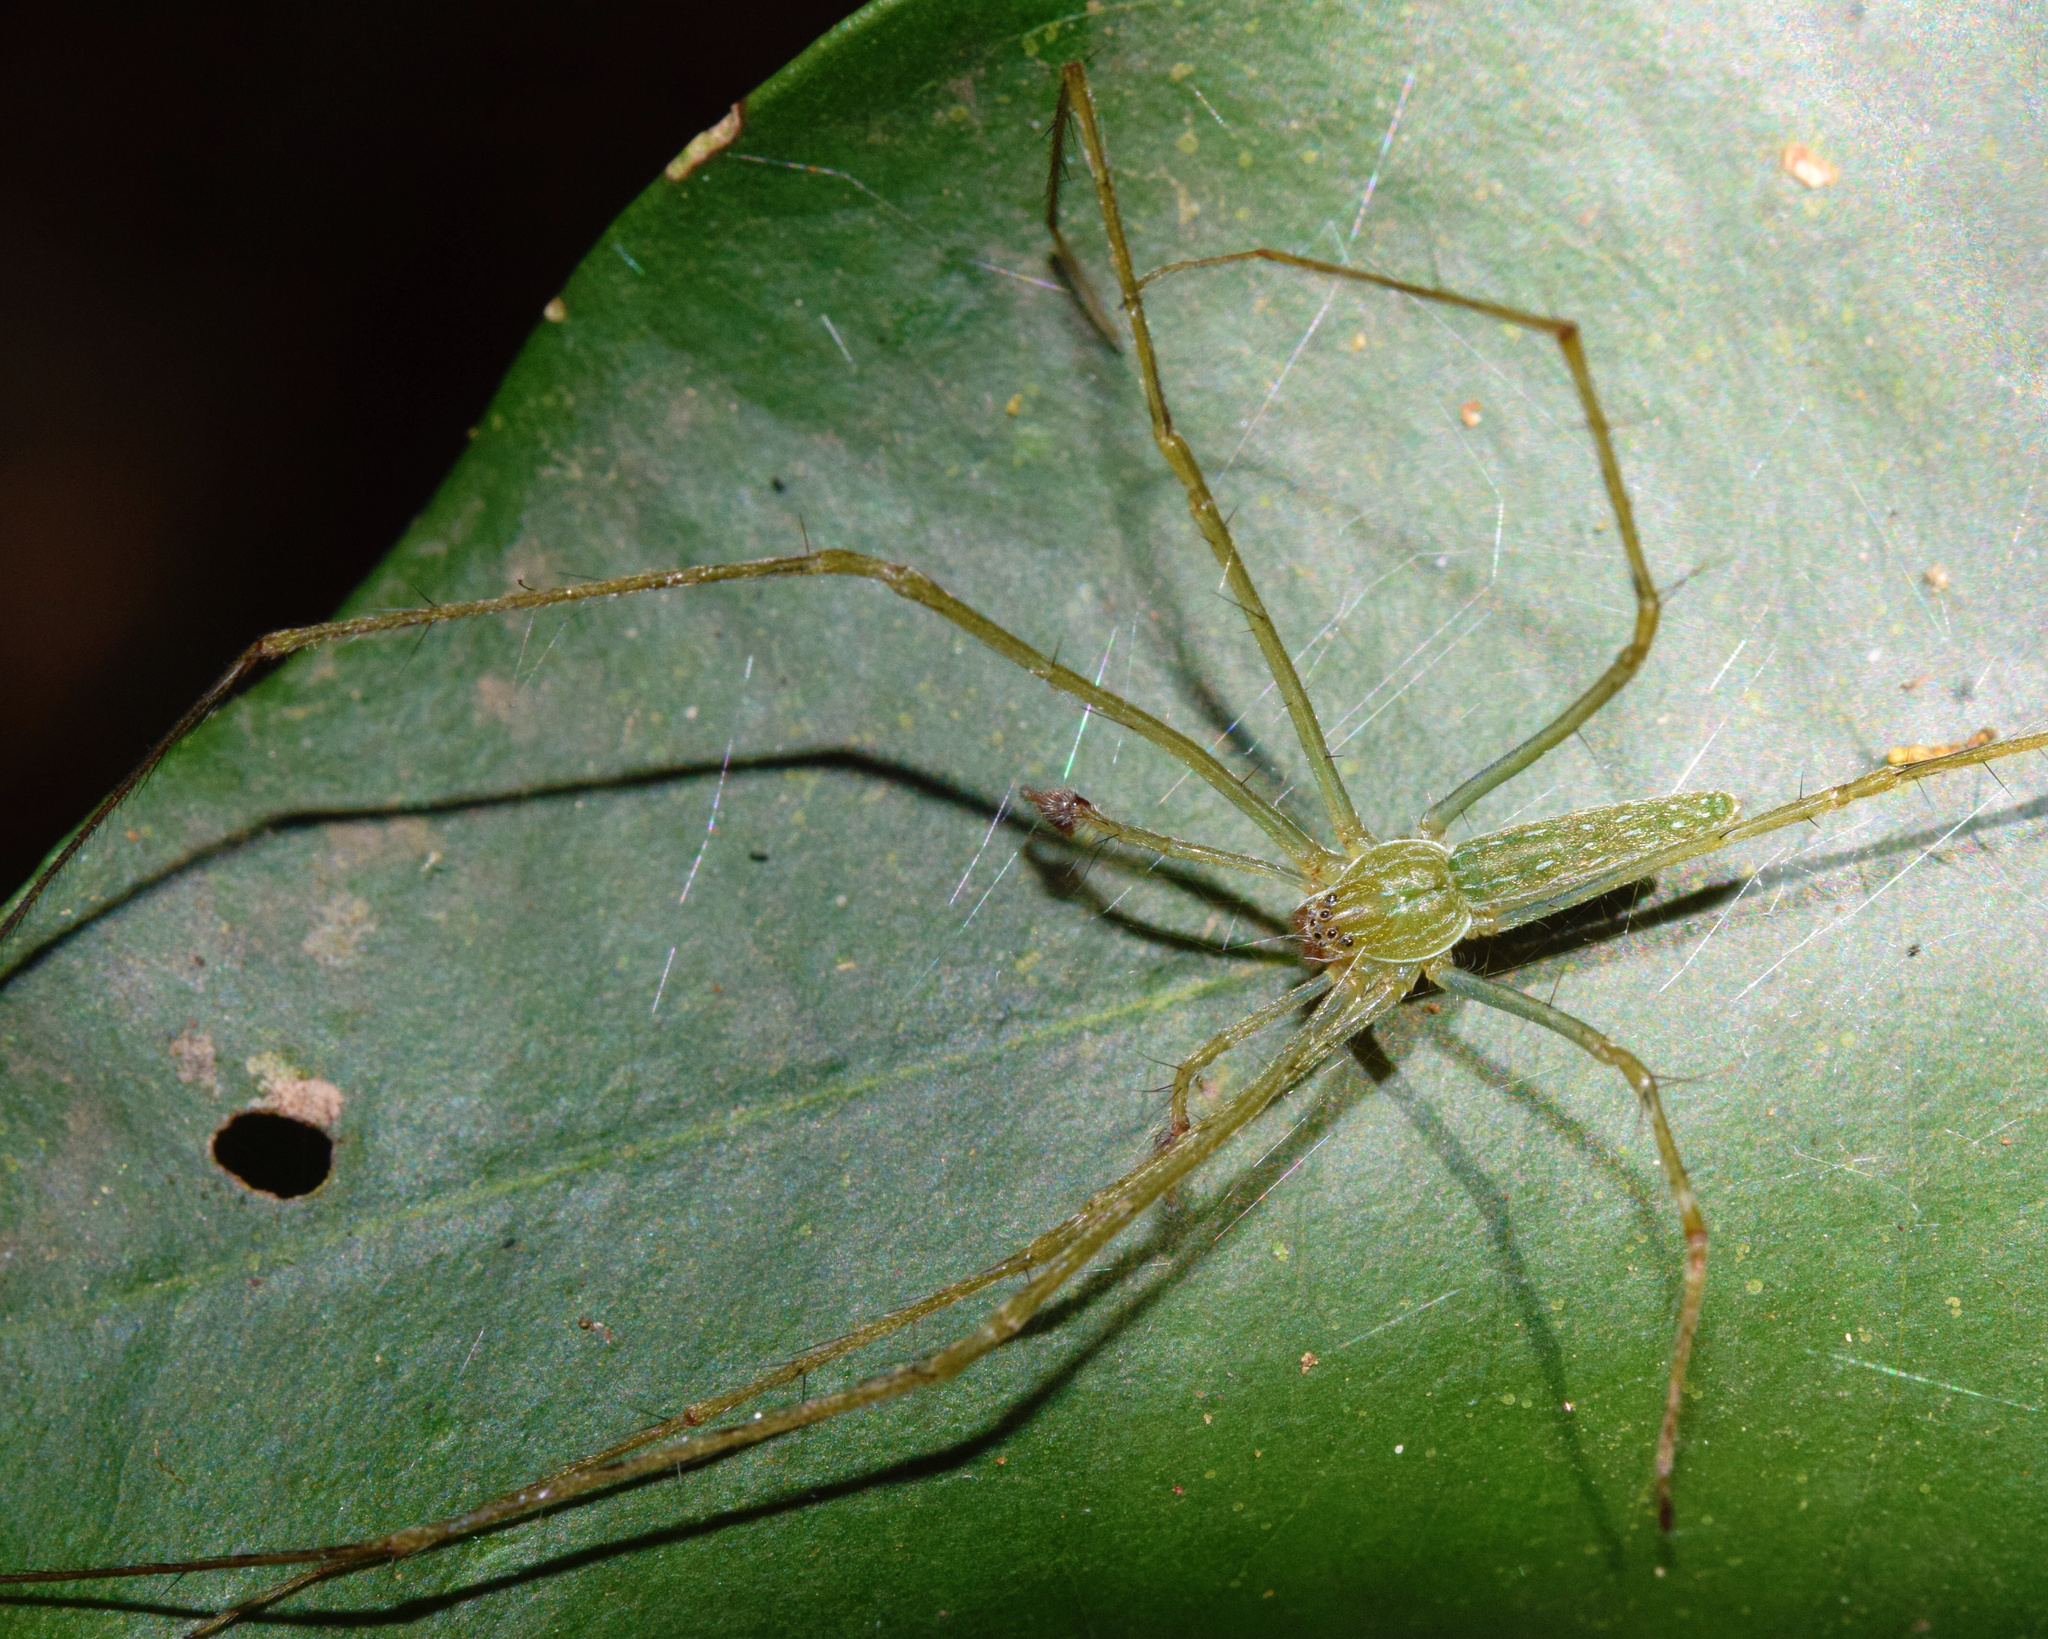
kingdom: Animalia
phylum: Arthropoda
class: Arachnida
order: Araneae
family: Pisauridae
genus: Hygropoda
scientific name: Hygropoda tangana
